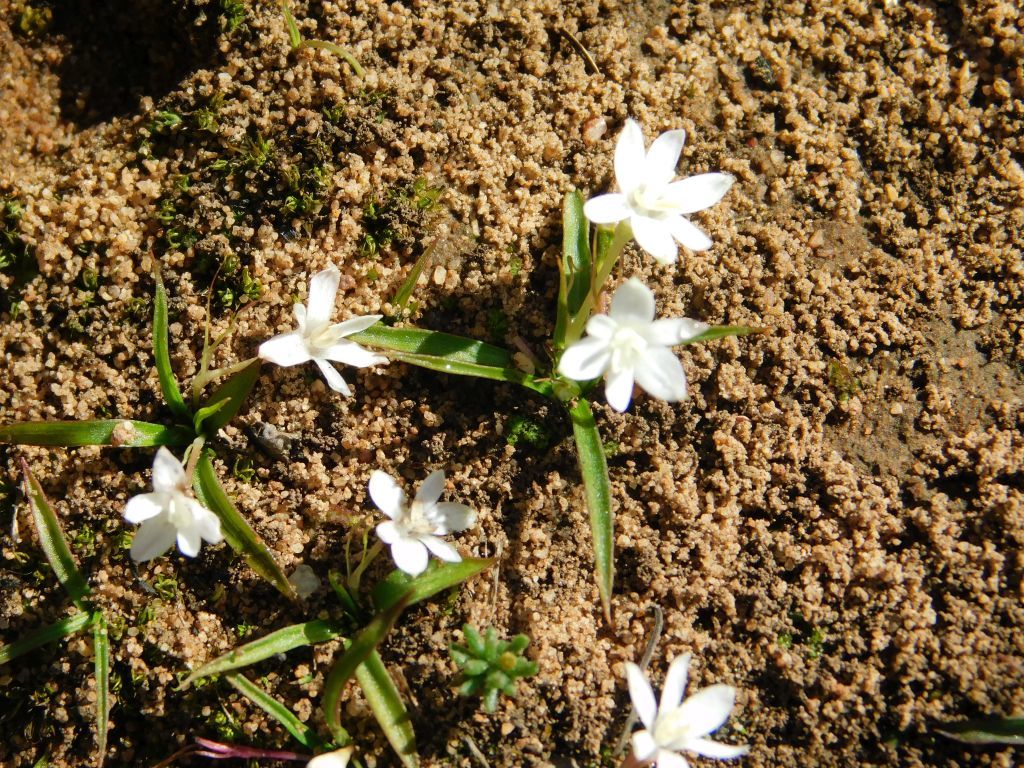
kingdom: Plantae
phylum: Tracheophyta
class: Liliopsida
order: Asparagales
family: Hypoxidaceae
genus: Pauridia
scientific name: Pauridia minuta
